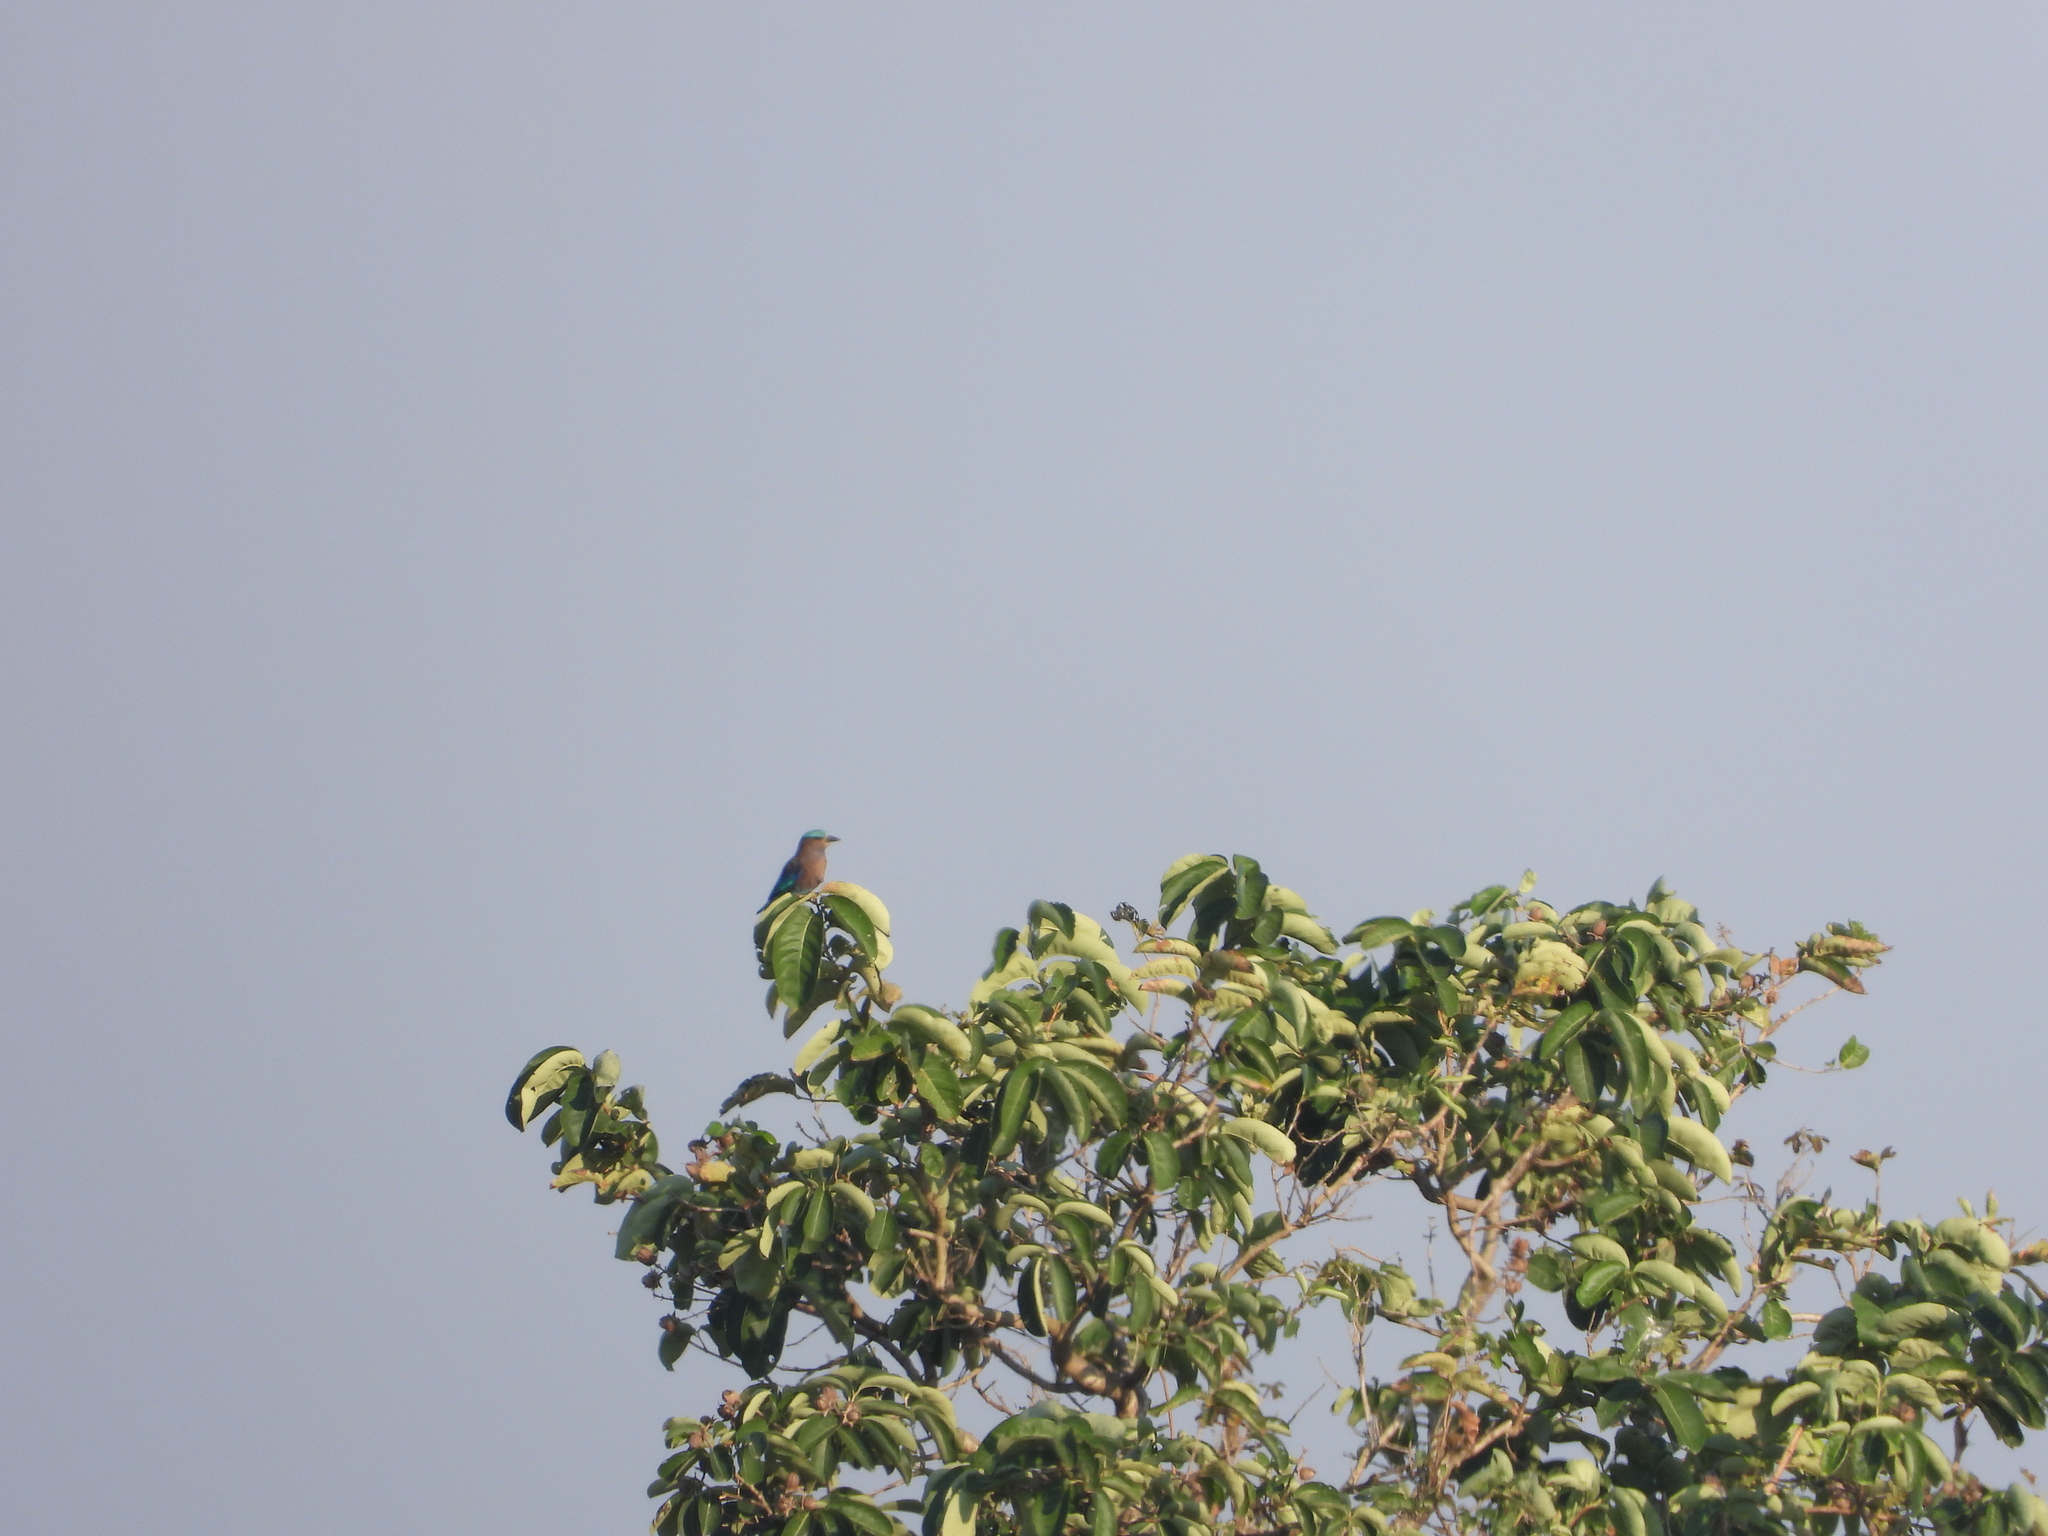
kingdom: Animalia
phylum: Chordata
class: Aves
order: Coraciiformes
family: Coraciidae
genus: Coracias
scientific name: Coracias affinis
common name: Indochinese roller
